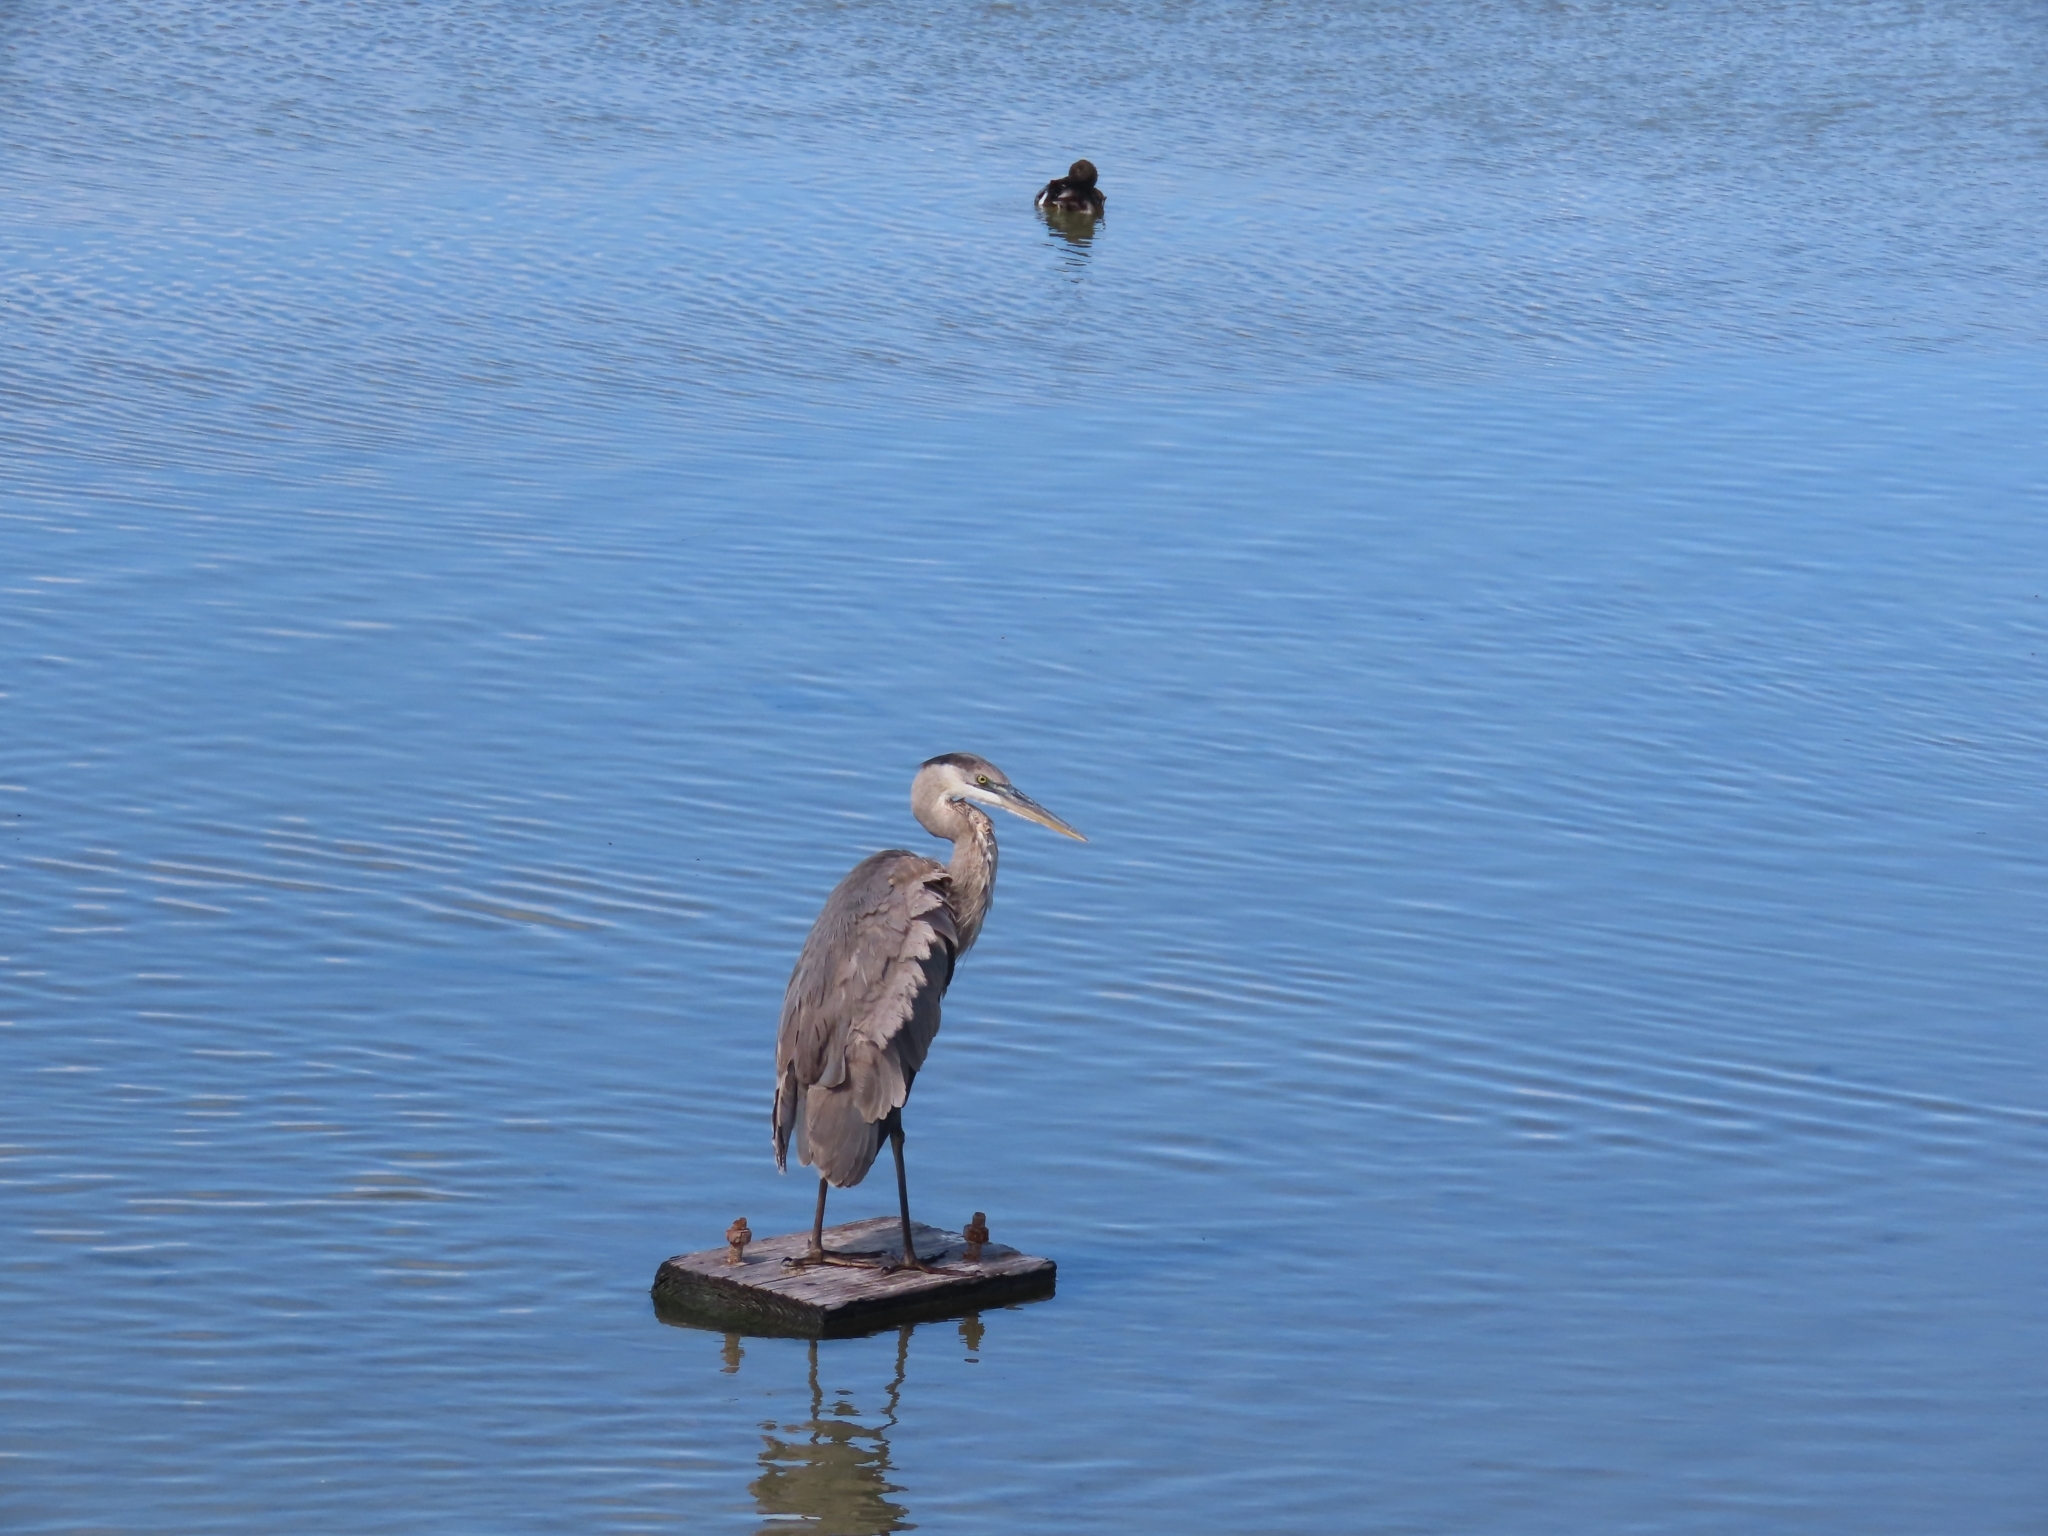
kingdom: Animalia
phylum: Chordata
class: Aves
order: Pelecaniformes
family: Ardeidae
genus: Ardea
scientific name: Ardea herodias
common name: Great blue heron
